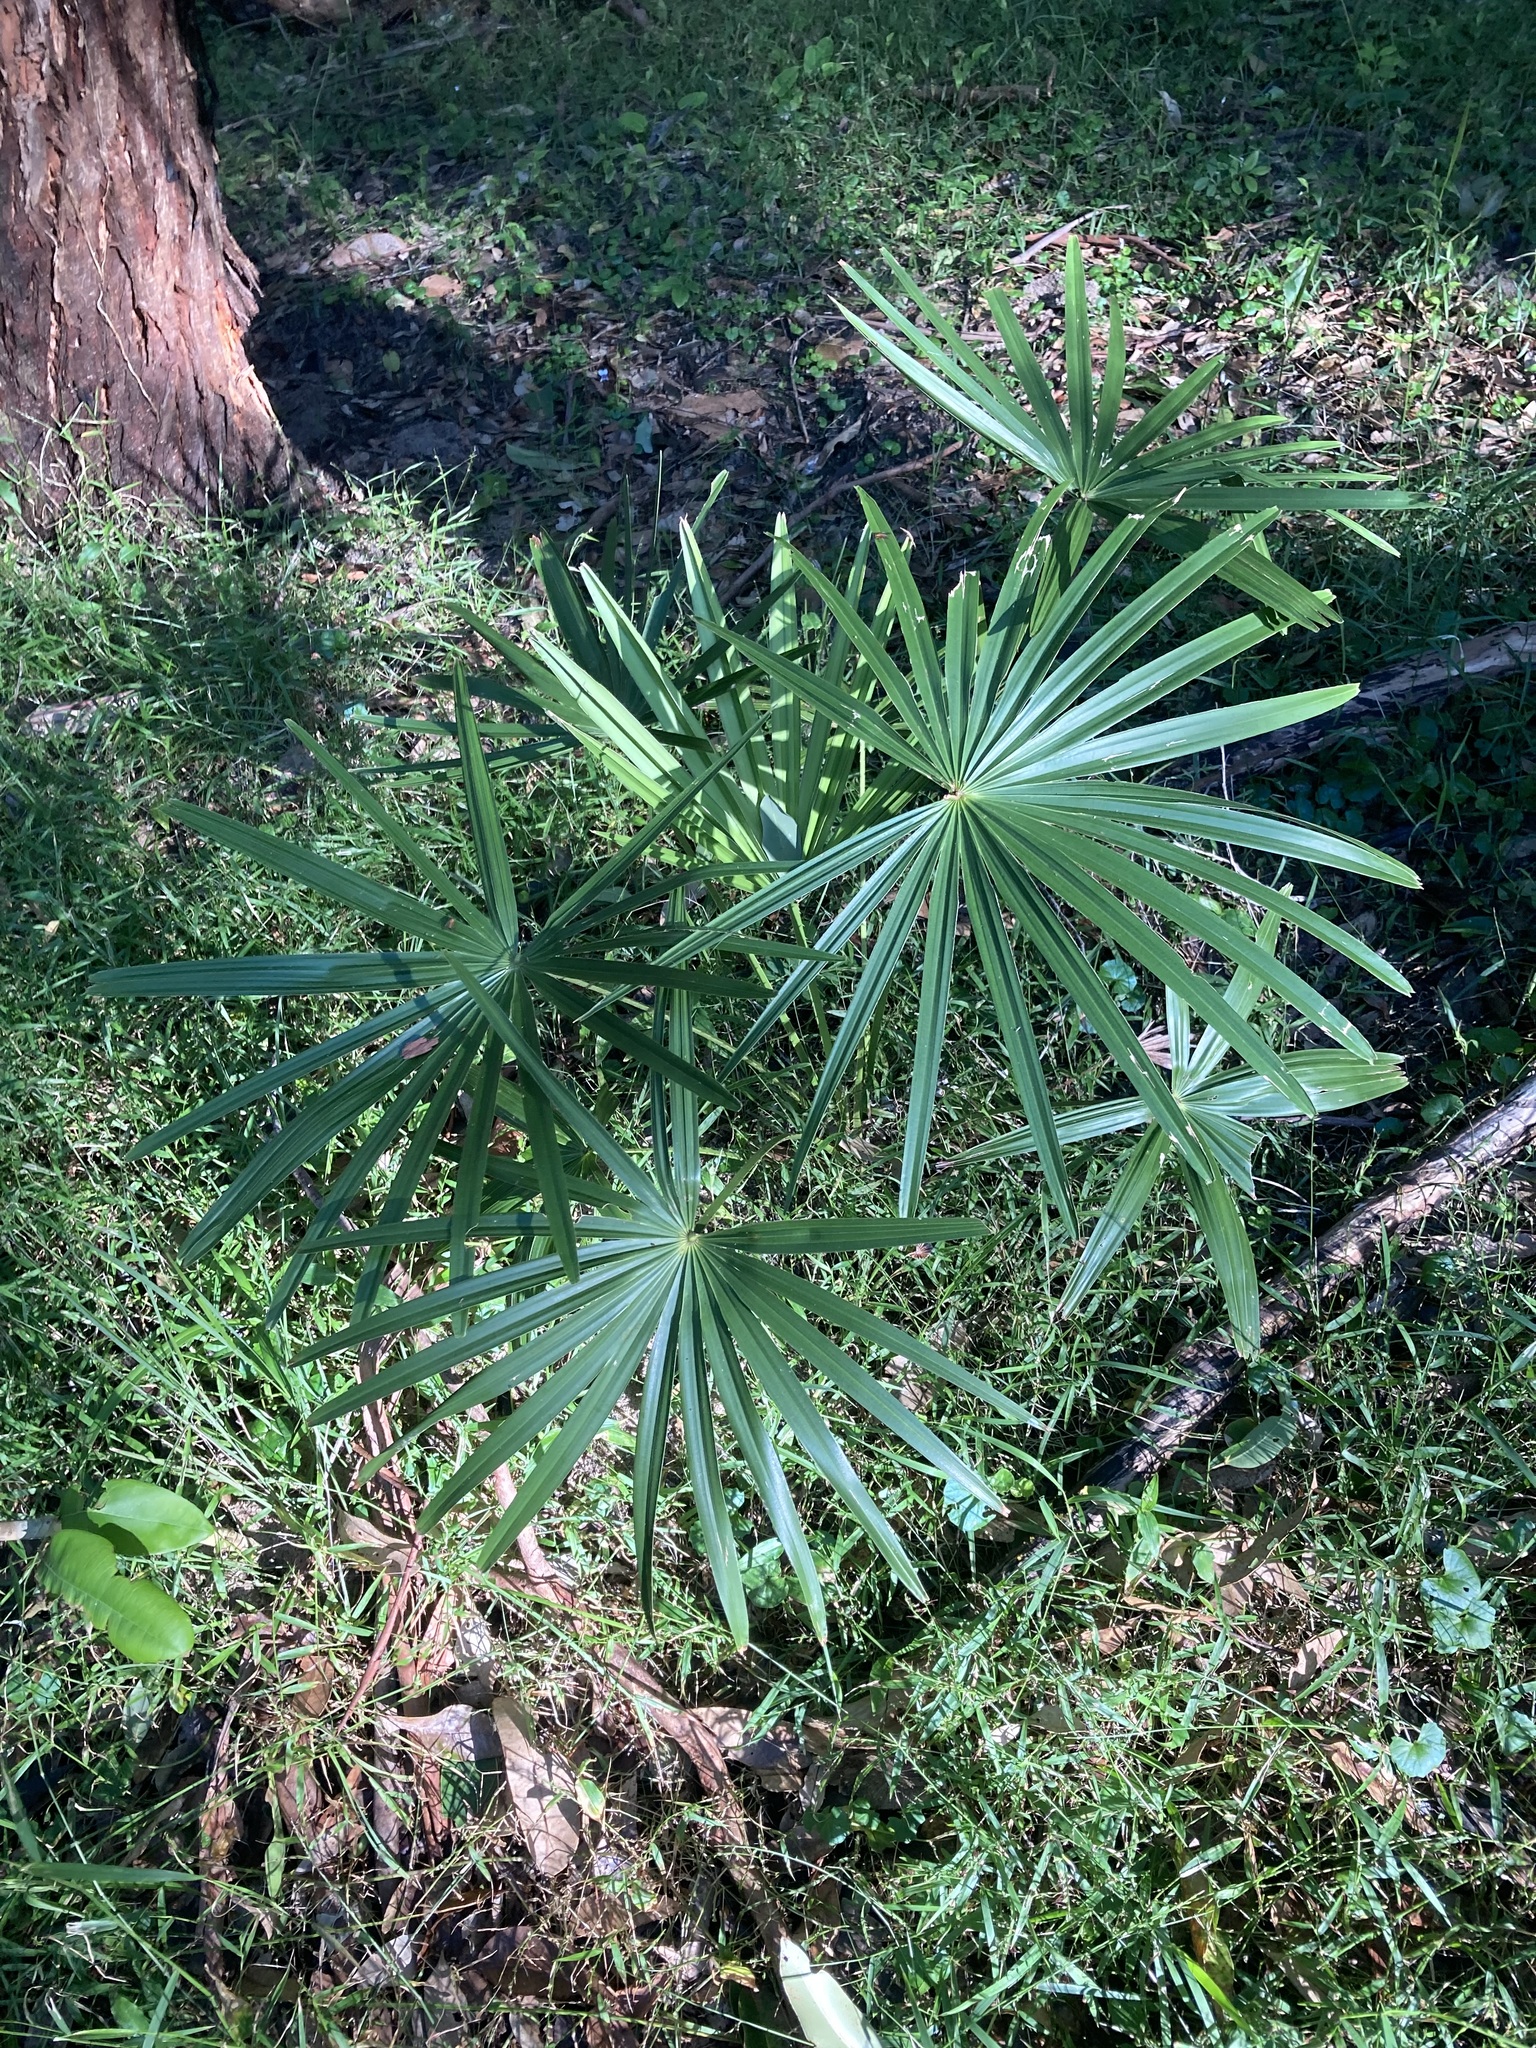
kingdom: Plantae
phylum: Tracheophyta
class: Liliopsida
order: Arecales
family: Arecaceae
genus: Livistona
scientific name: Livistona australis
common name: Cabbage fan palm
